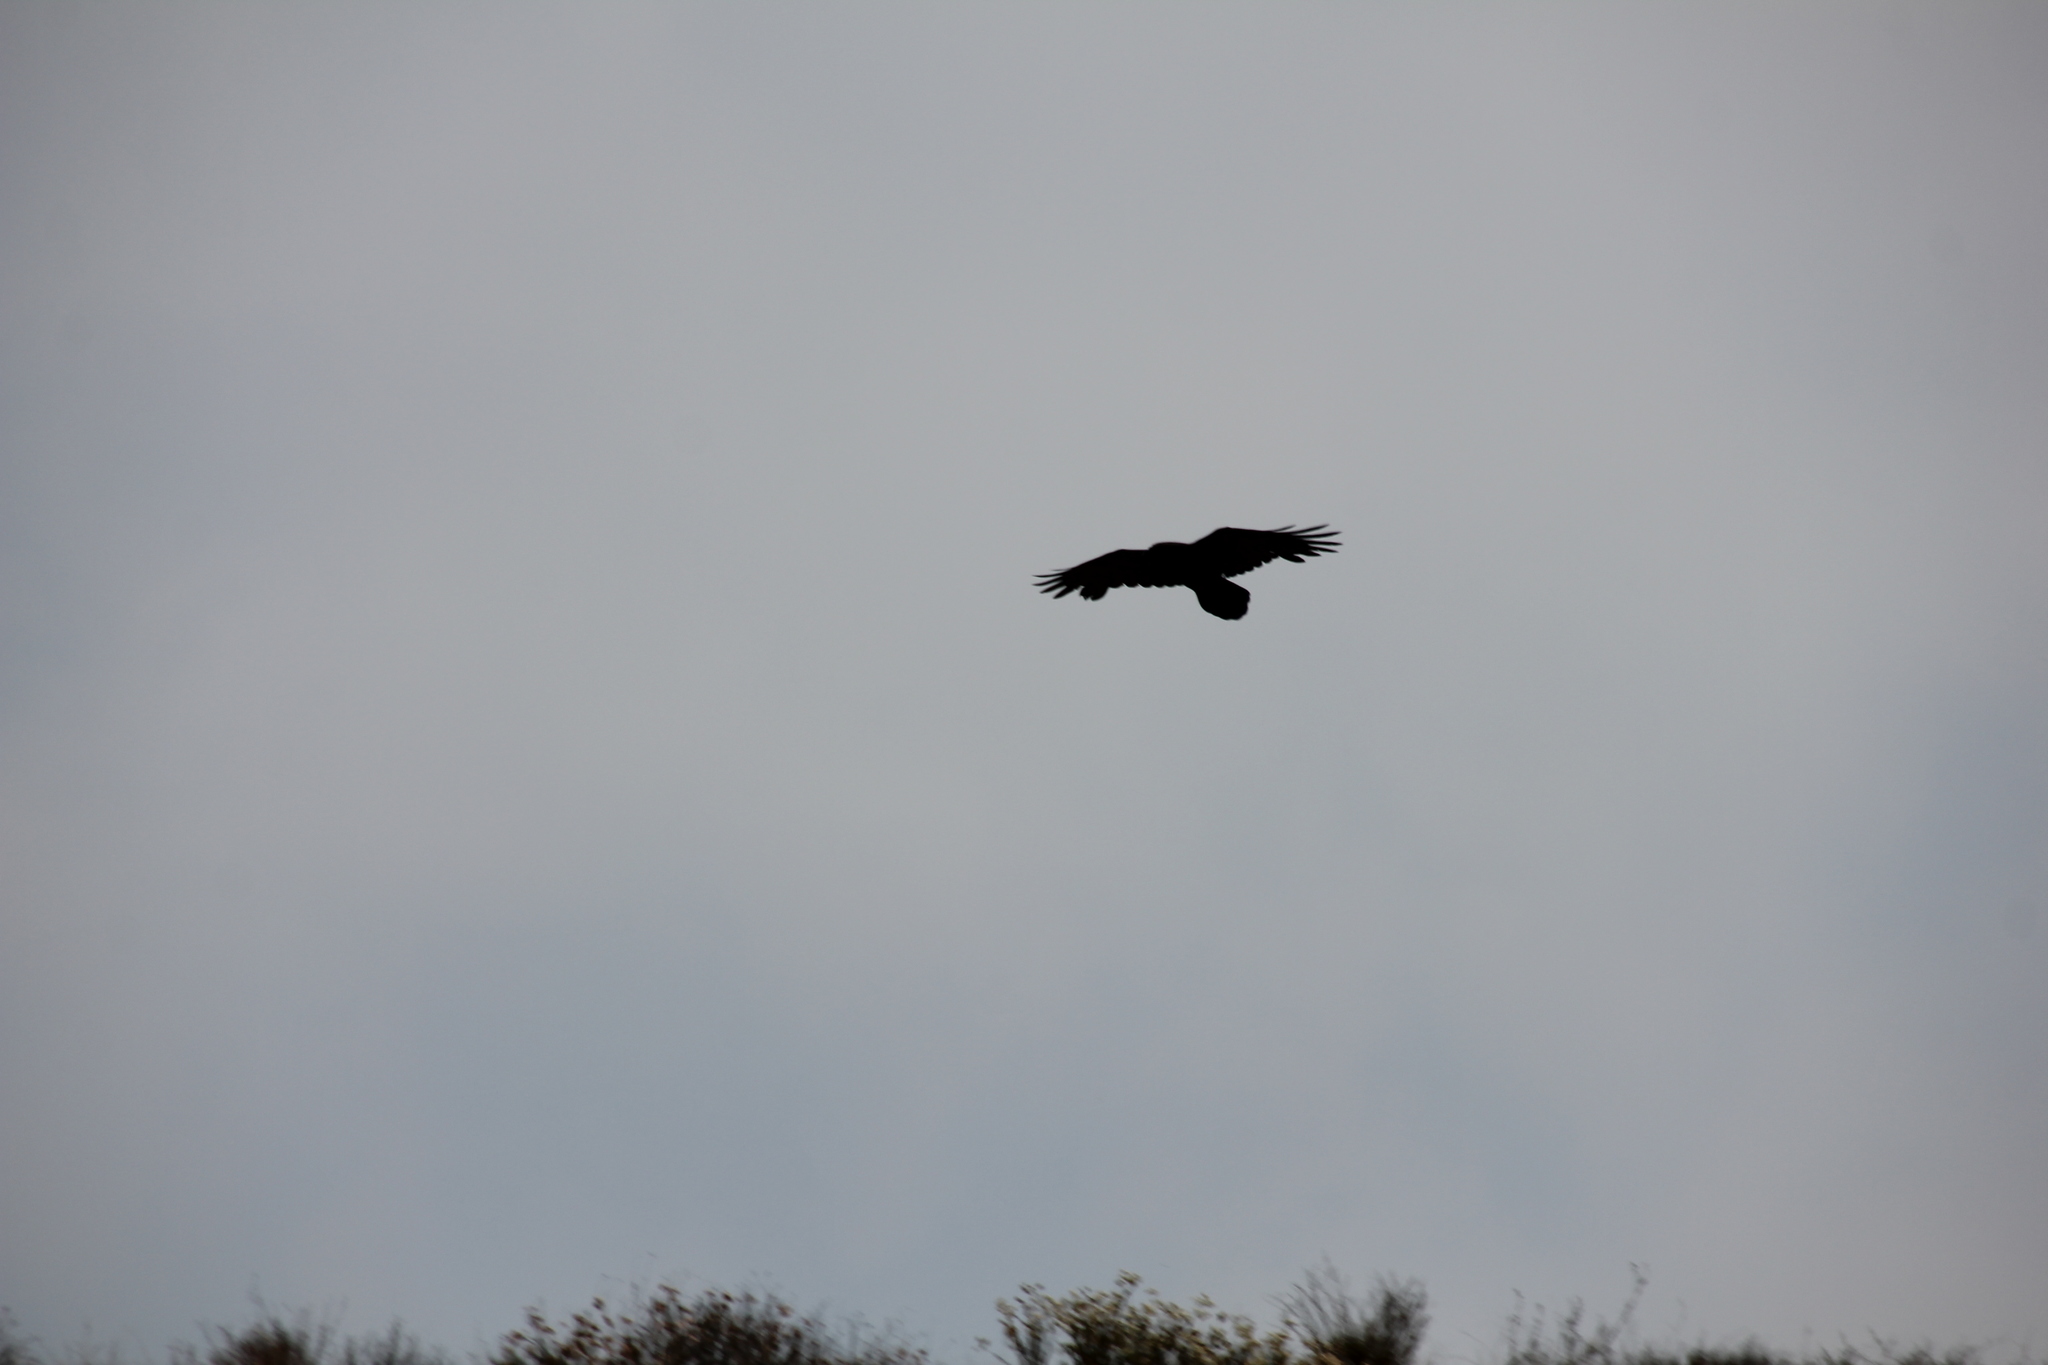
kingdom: Animalia
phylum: Chordata
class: Aves
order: Passeriformes
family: Corvidae
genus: Corvus
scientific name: Corvus corax
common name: Common raven
